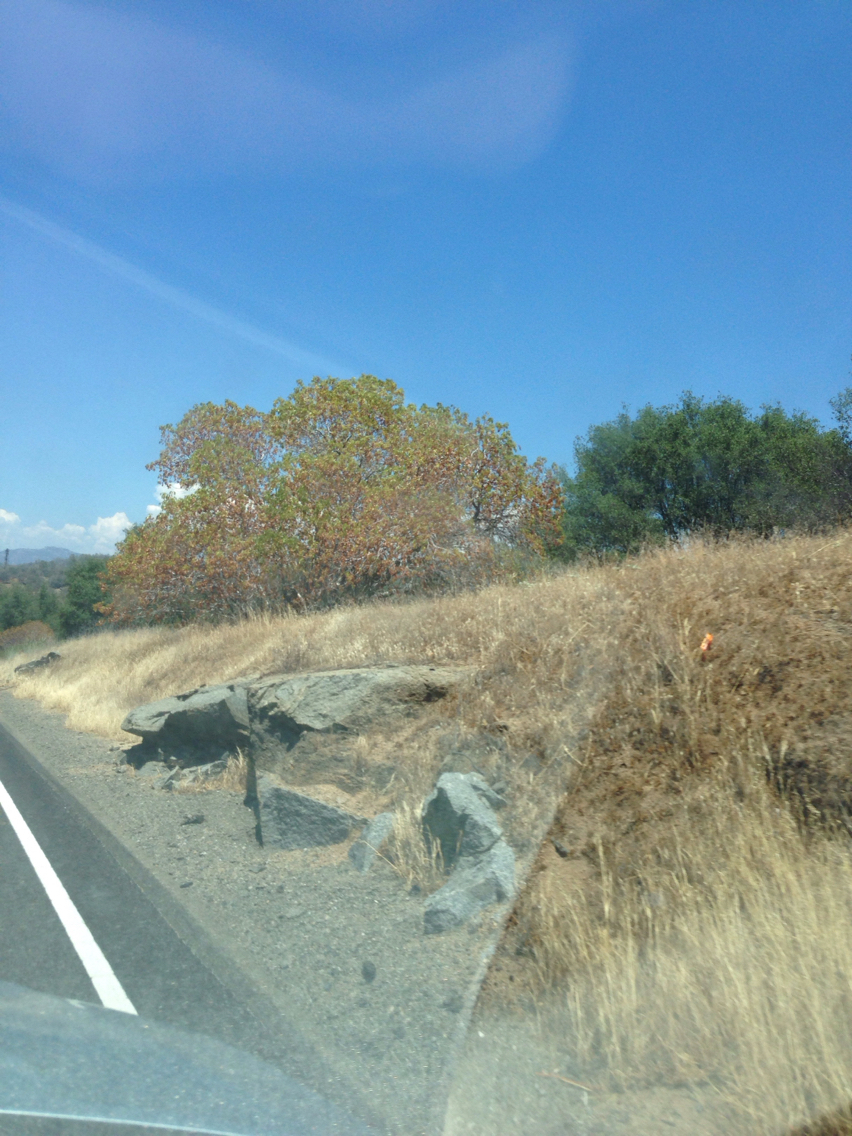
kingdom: Plantae
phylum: Tracheophyta
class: Magnoliopsida
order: Sapindales
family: Sapindaceae
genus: Aesculus
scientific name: Aesculus californica
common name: California buckeye
